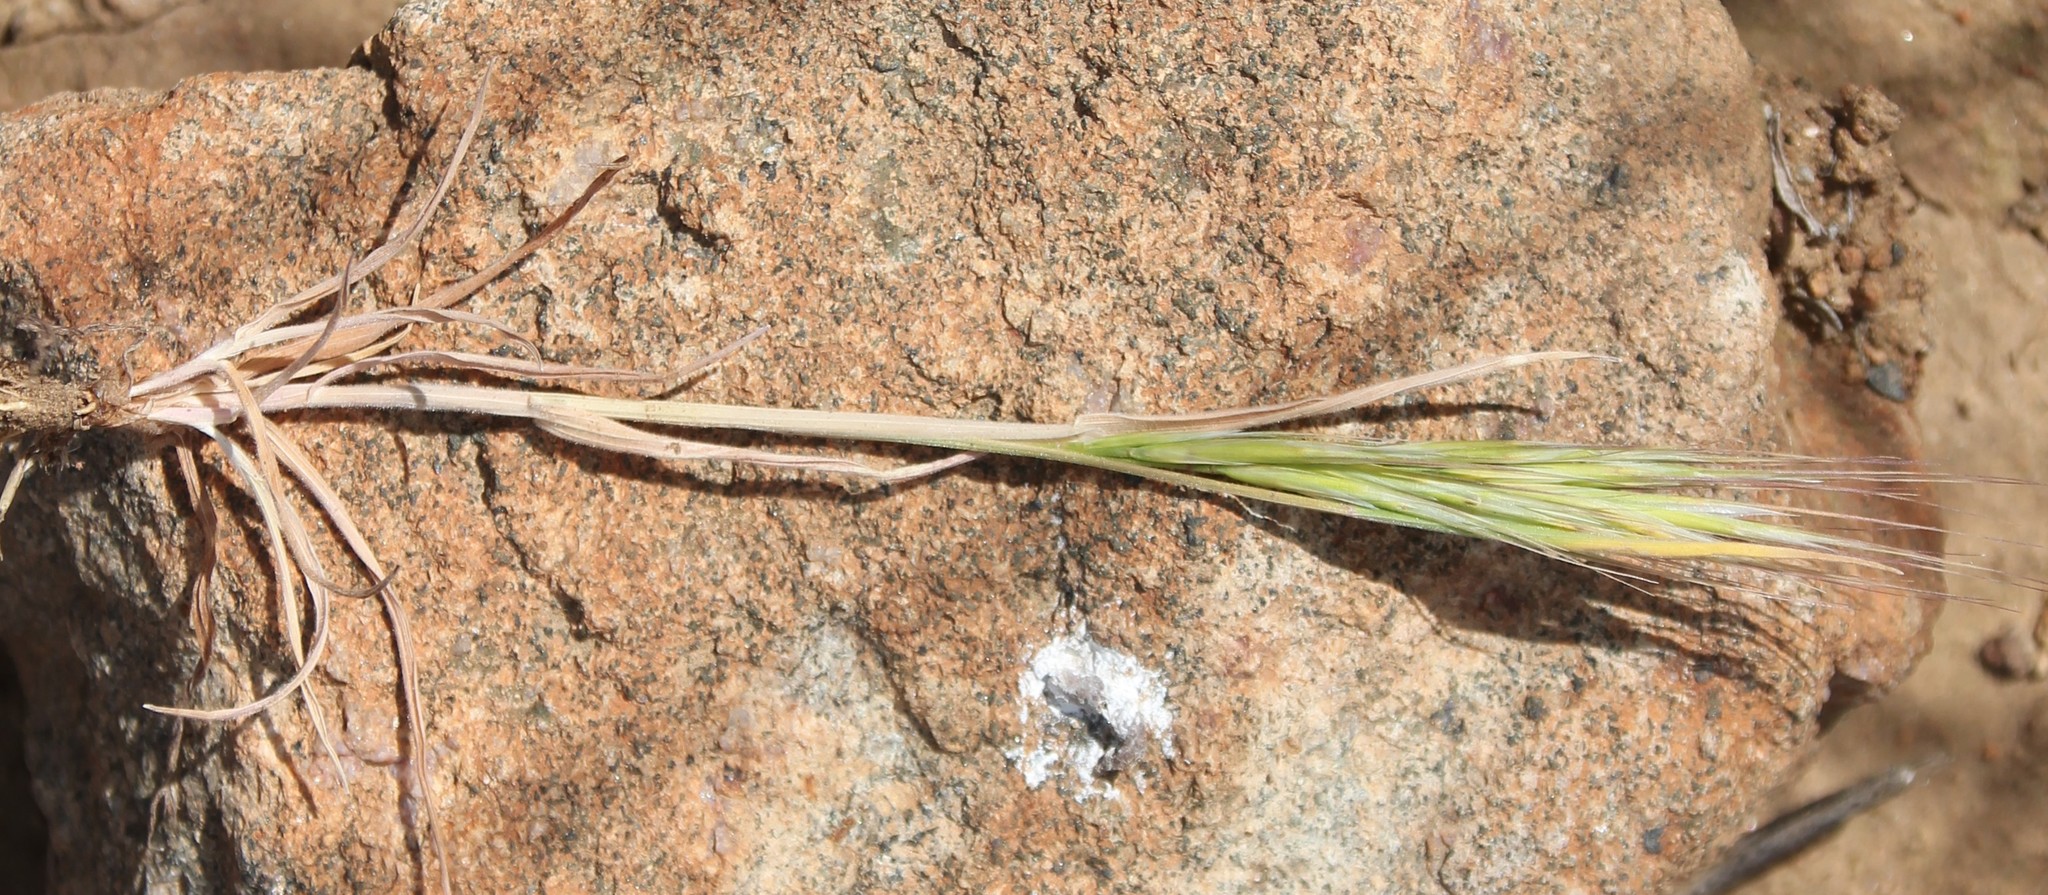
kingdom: Plantae
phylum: Tracheophyta
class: Liliopsida
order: Poales
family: Poaceae
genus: Bromus
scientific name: Bromus rubens
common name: Red brome
